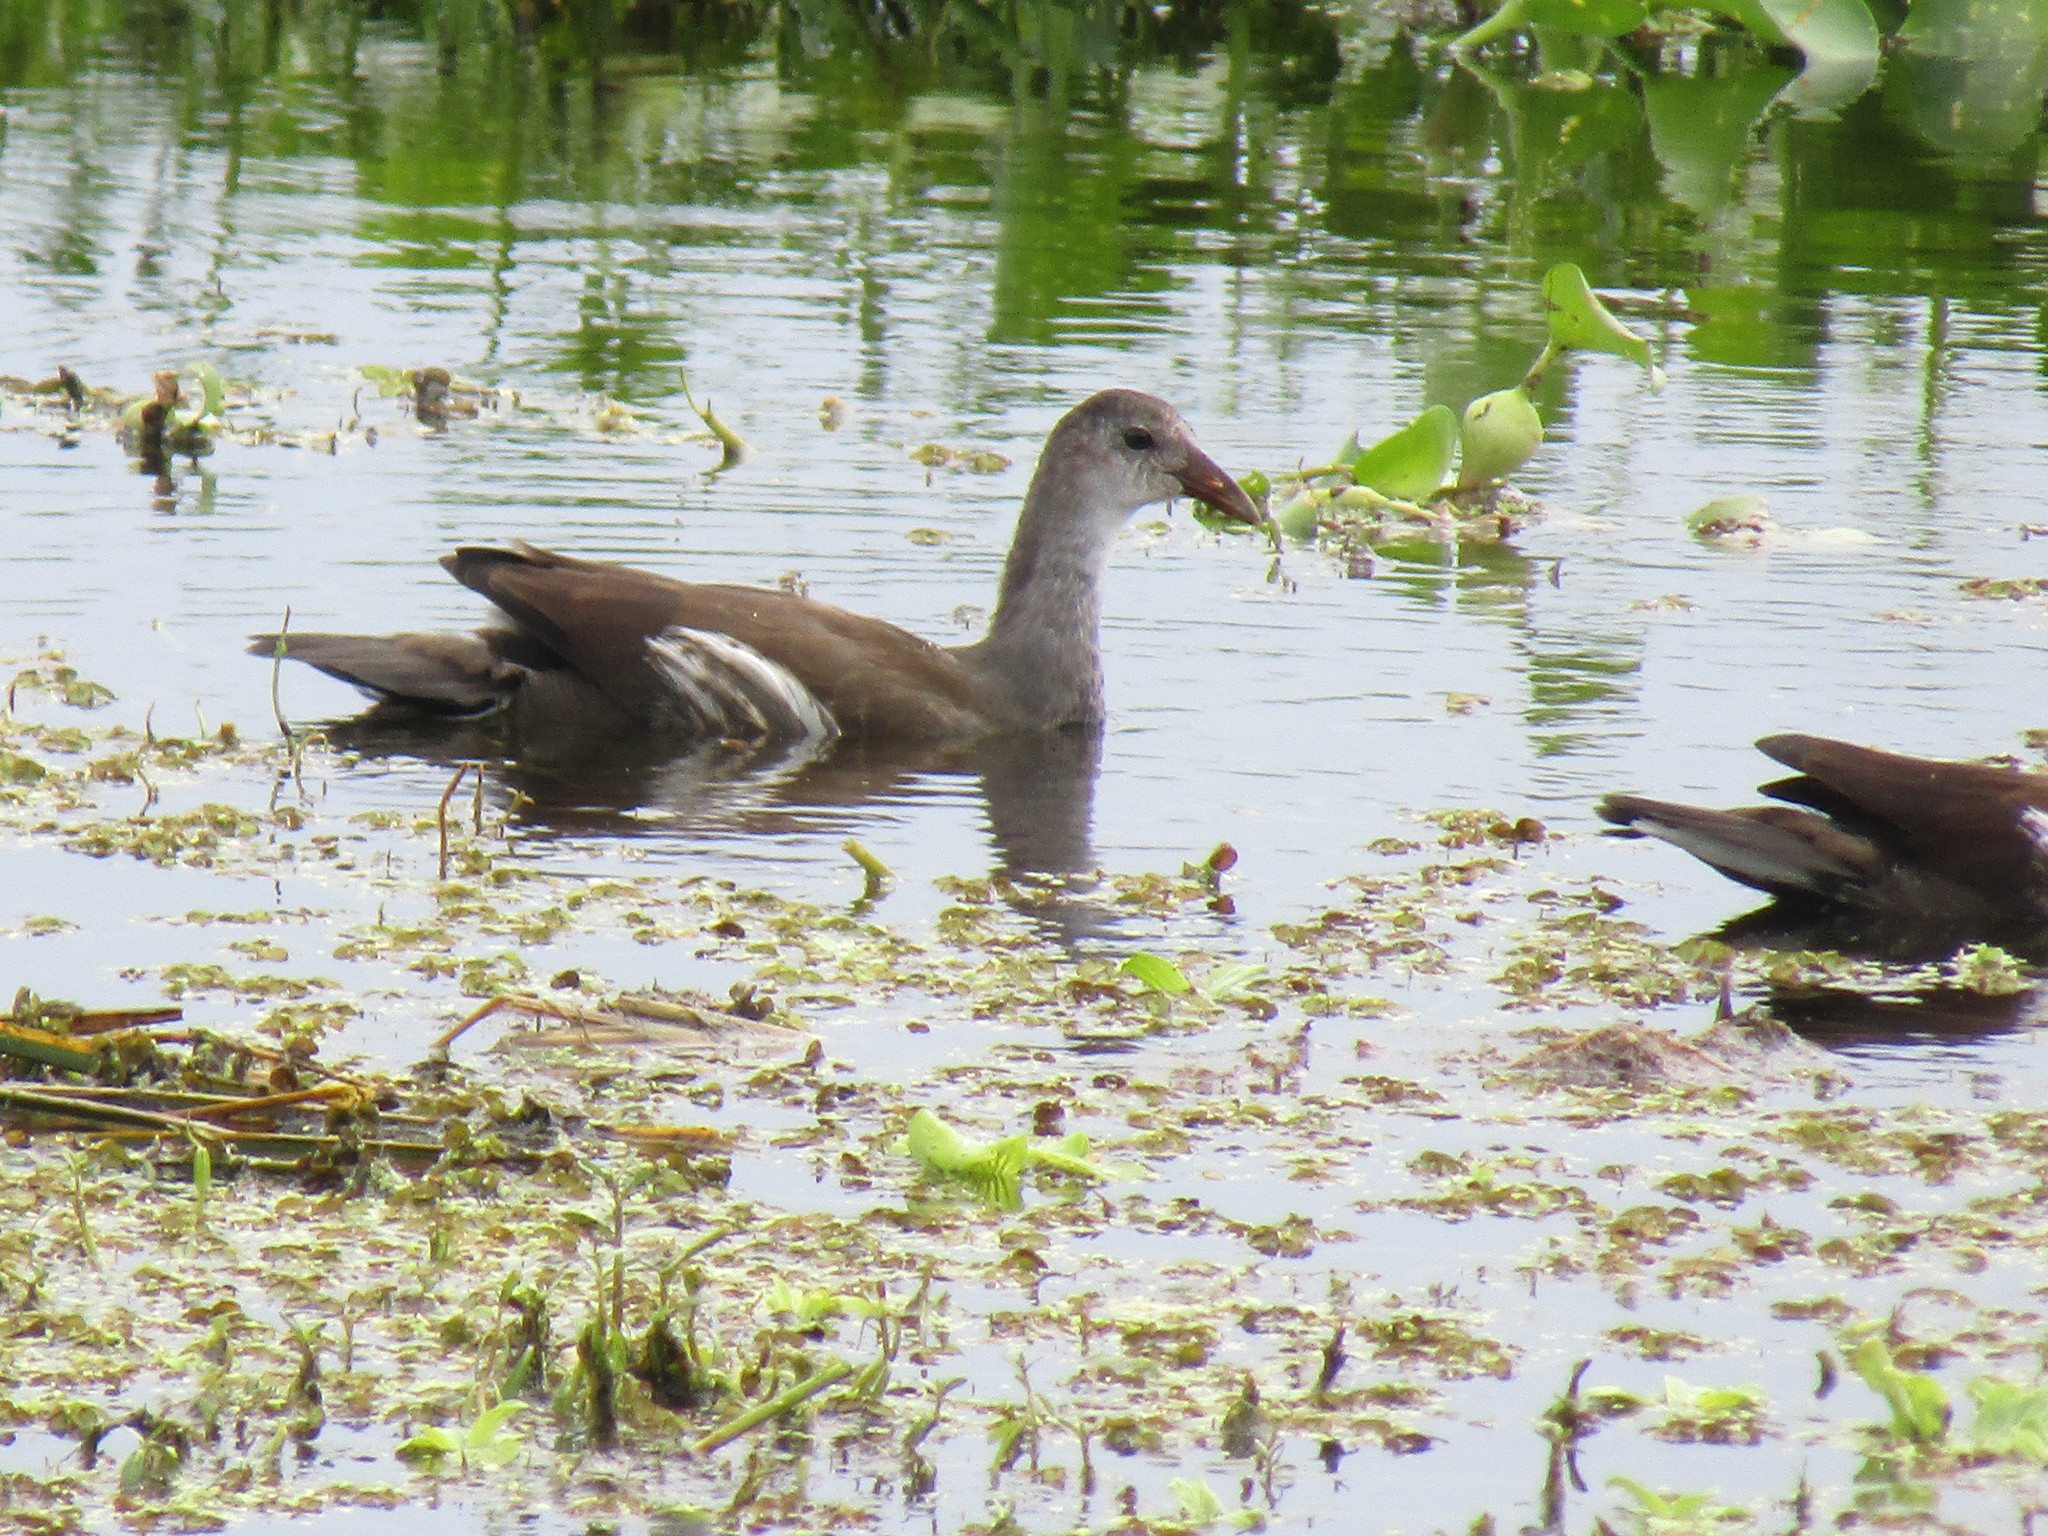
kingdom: Animalia
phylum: Chordata
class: Aves
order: Gruiformes
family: Rallidae
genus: Gallinula
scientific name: Gallinula chloropus
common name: Common moorhen
